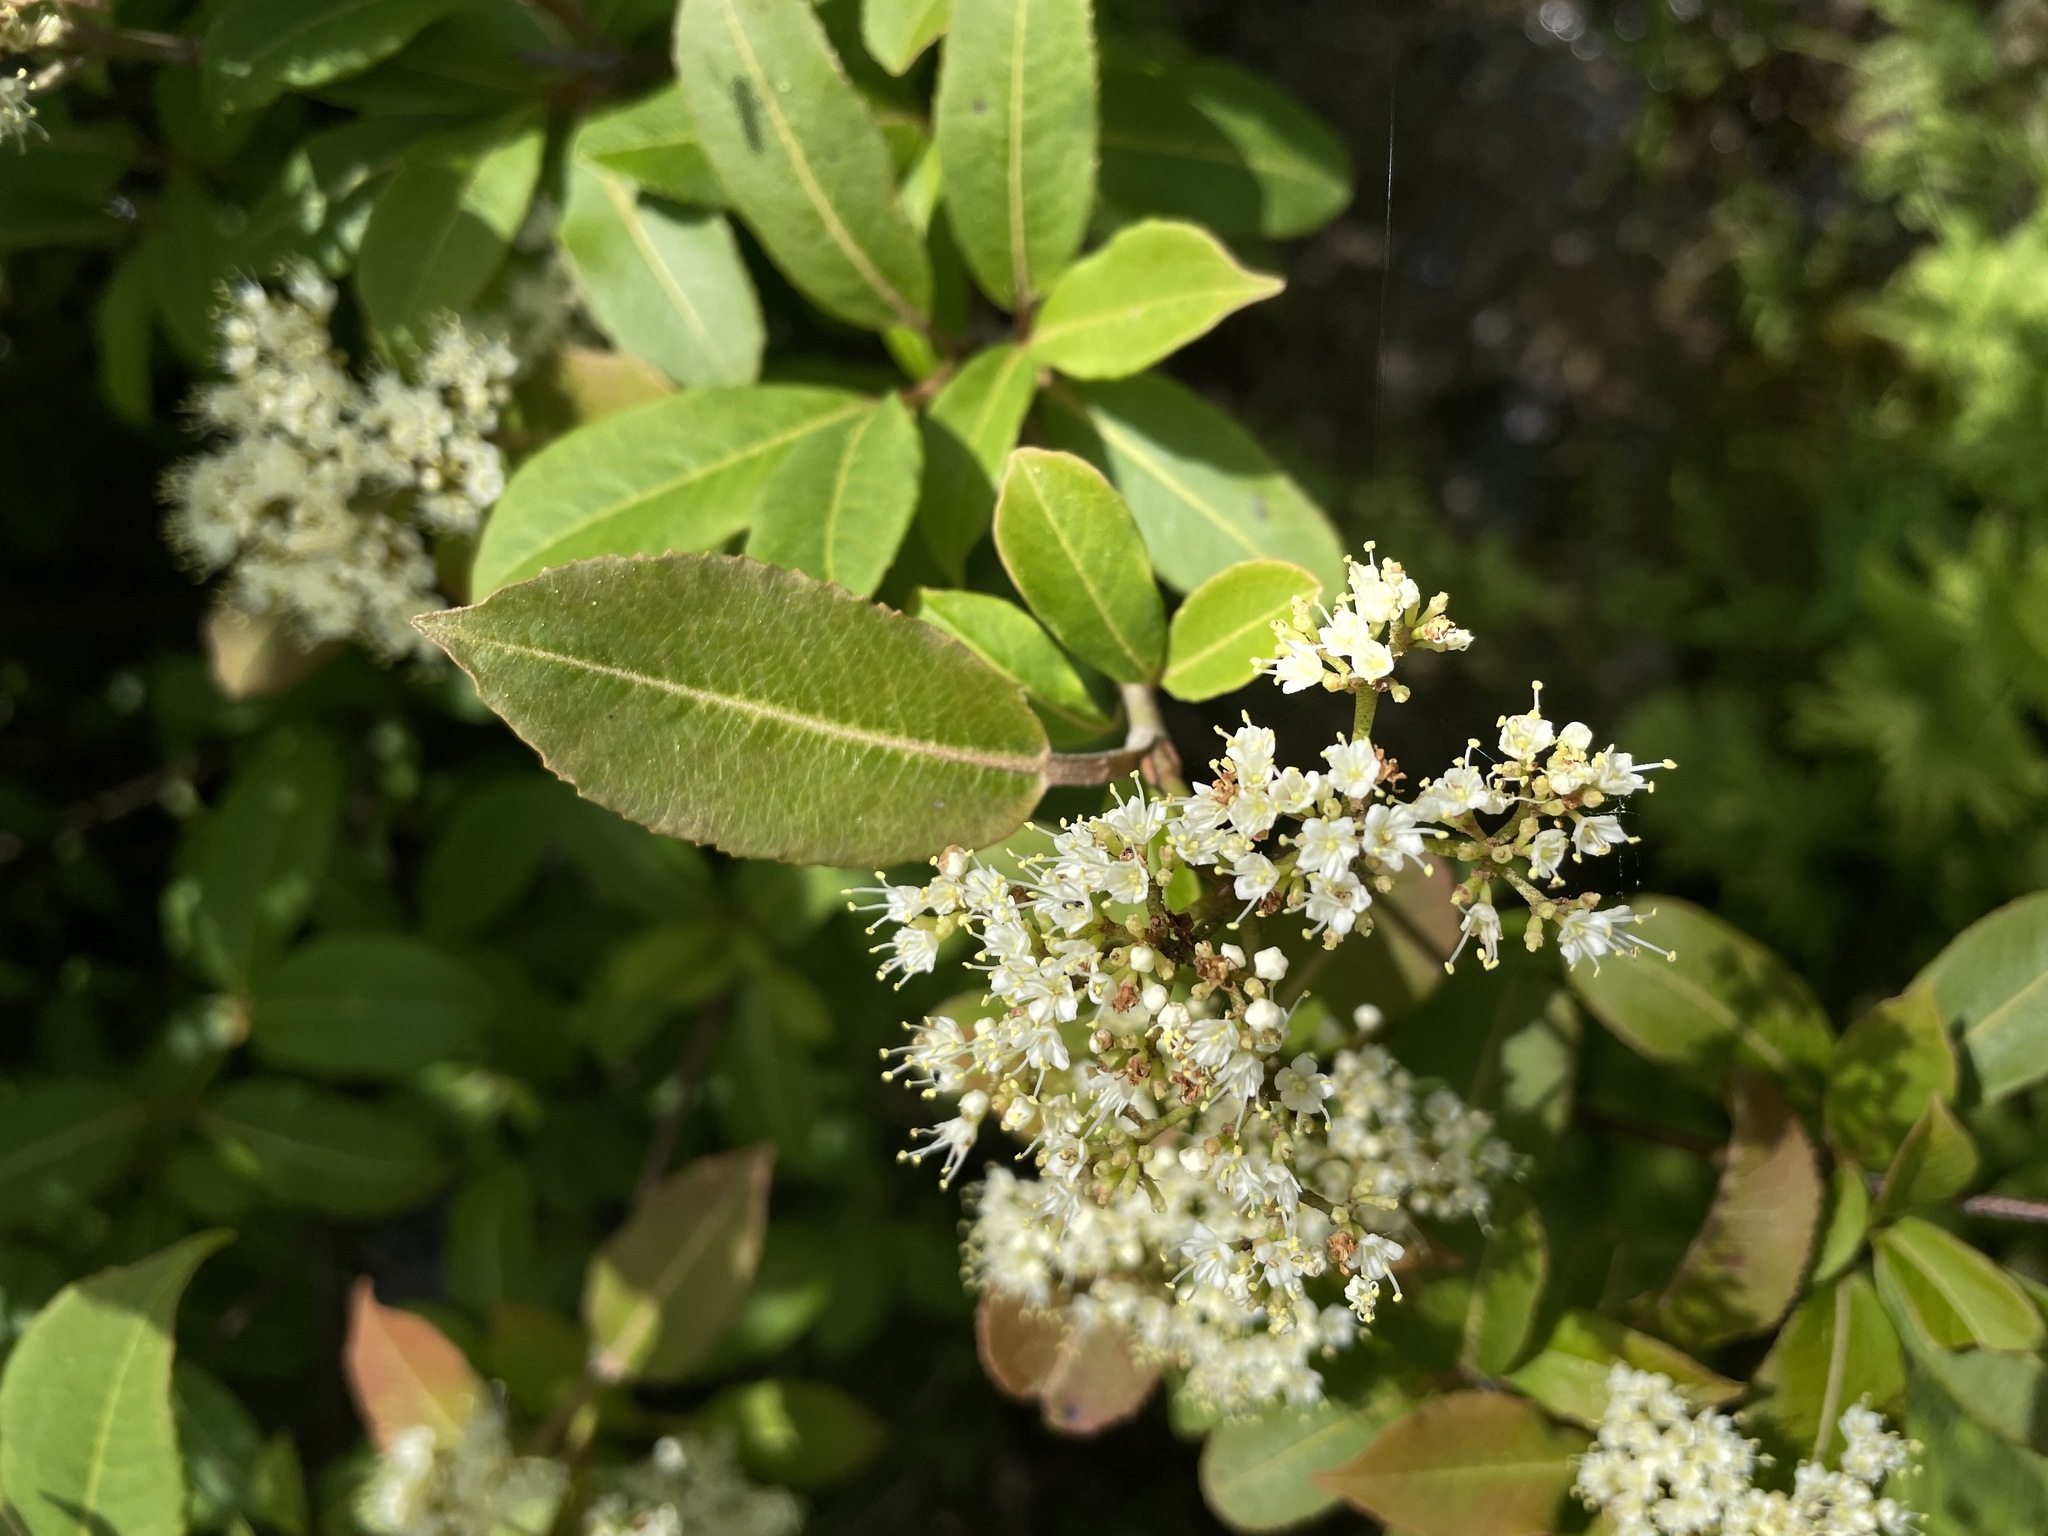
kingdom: Plantae
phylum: Tracheophyta
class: Magnoliopsida
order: Dipsacales
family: Viburnaceae
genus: Viburnum
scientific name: Viburnum cassinoides
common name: Swamp haw
